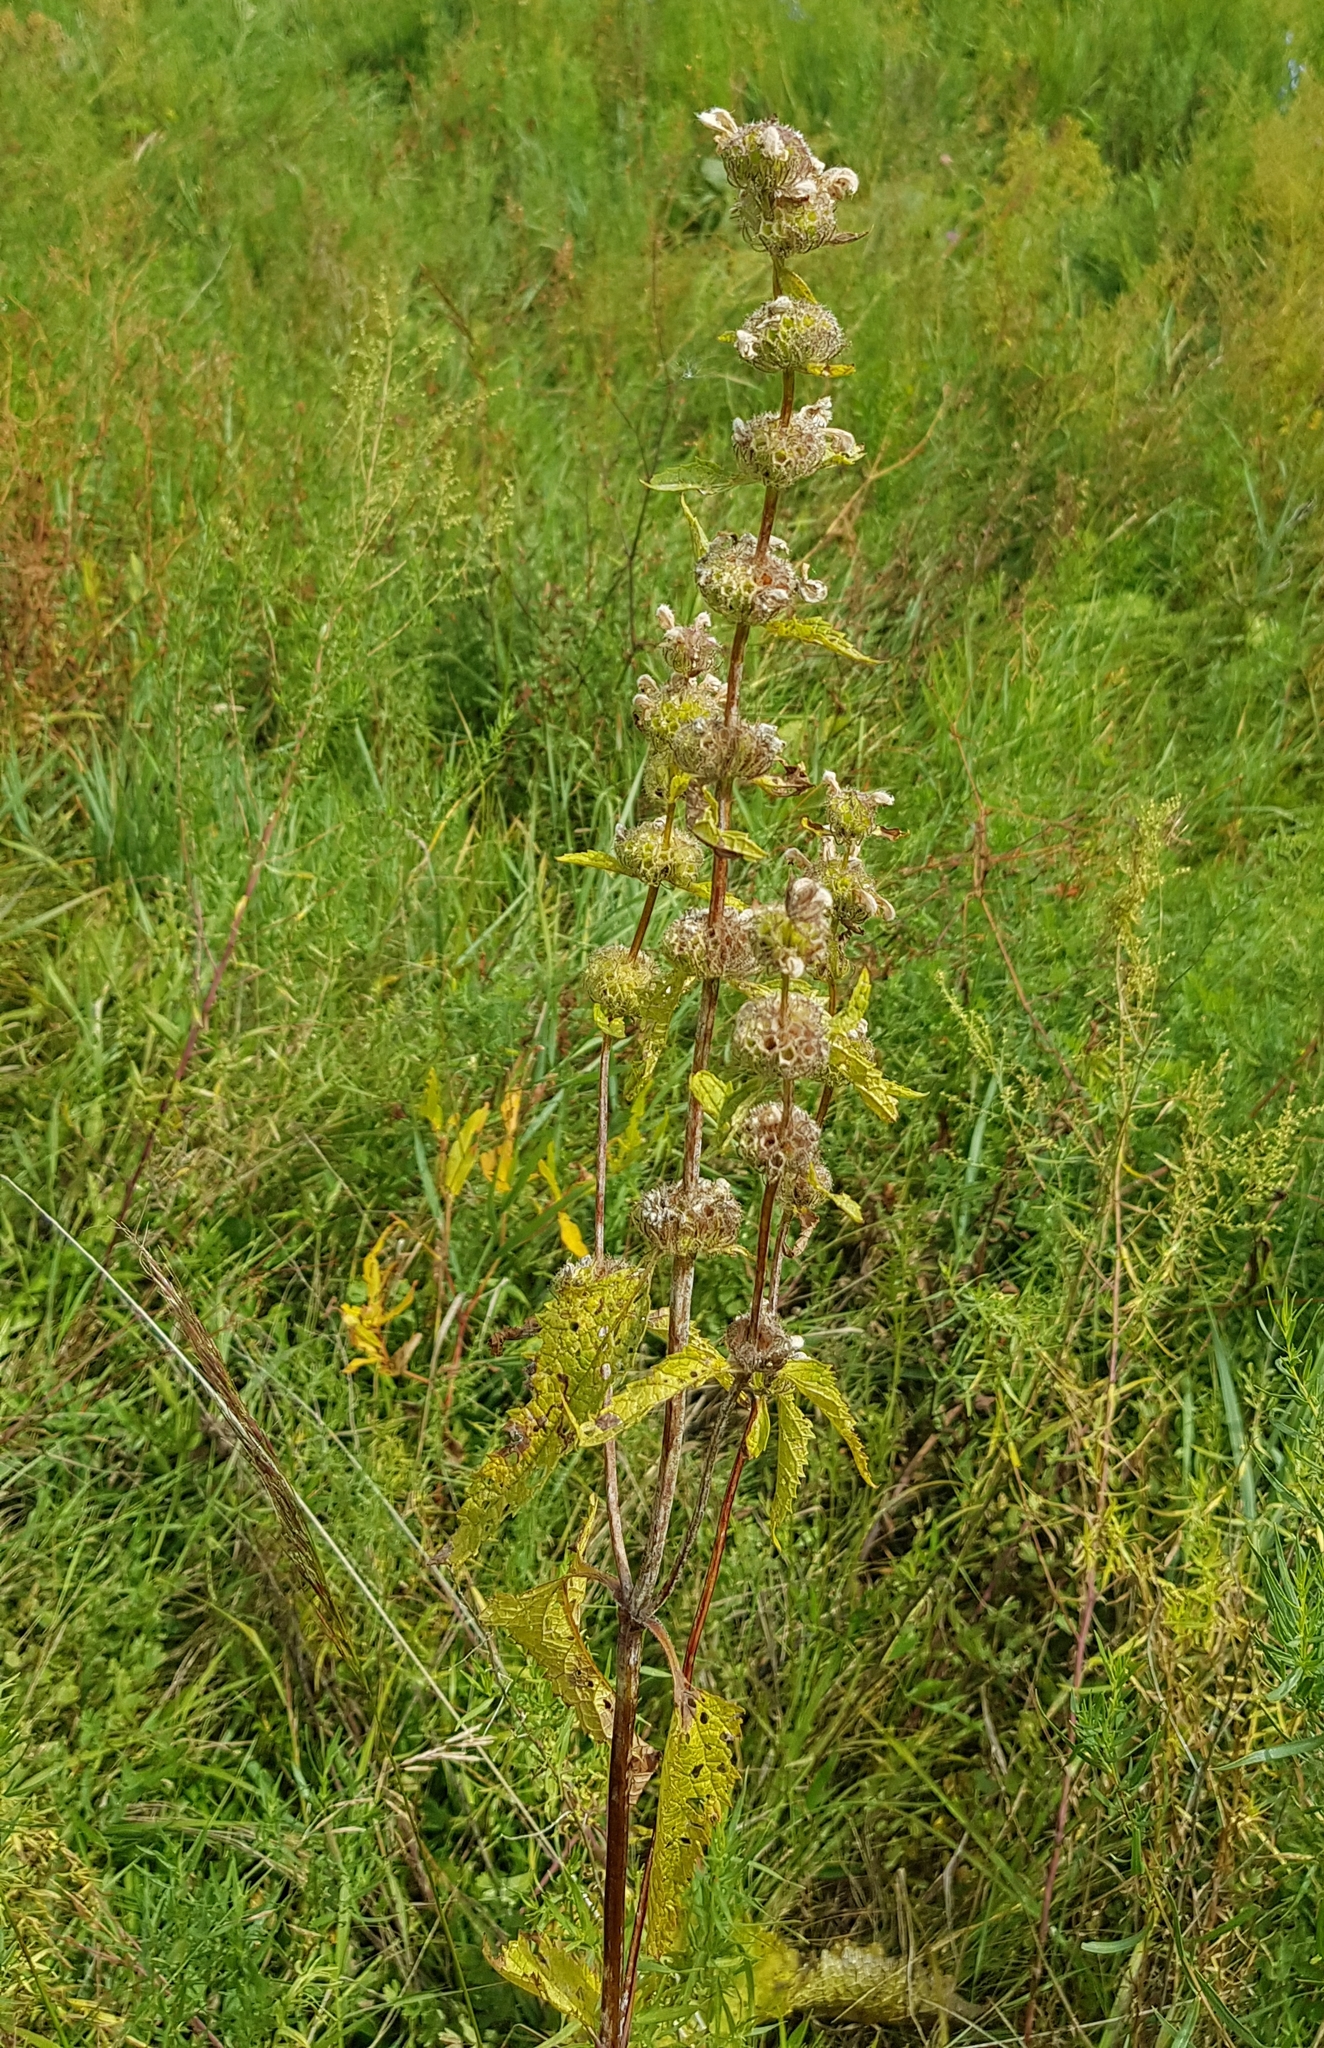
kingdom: Plantae
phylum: Tracheophyta
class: Magnoliopsida
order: Lamiales
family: Lamiaceae
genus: Phlomoides
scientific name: Phlomoides tuberosa
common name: Tuberous jerusalem sage
